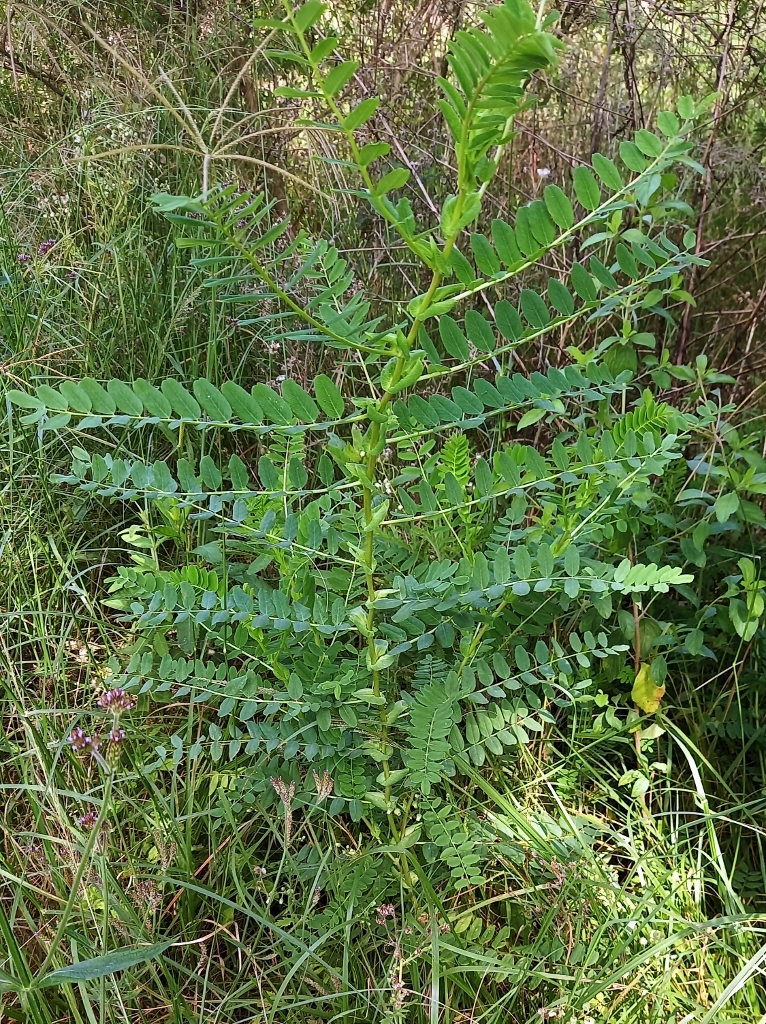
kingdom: Plantae
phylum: Tracheophyta
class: Magnoliopsida
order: Fabales
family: Fabaceae
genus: Astragalus
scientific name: Astragalus atropilosulus
